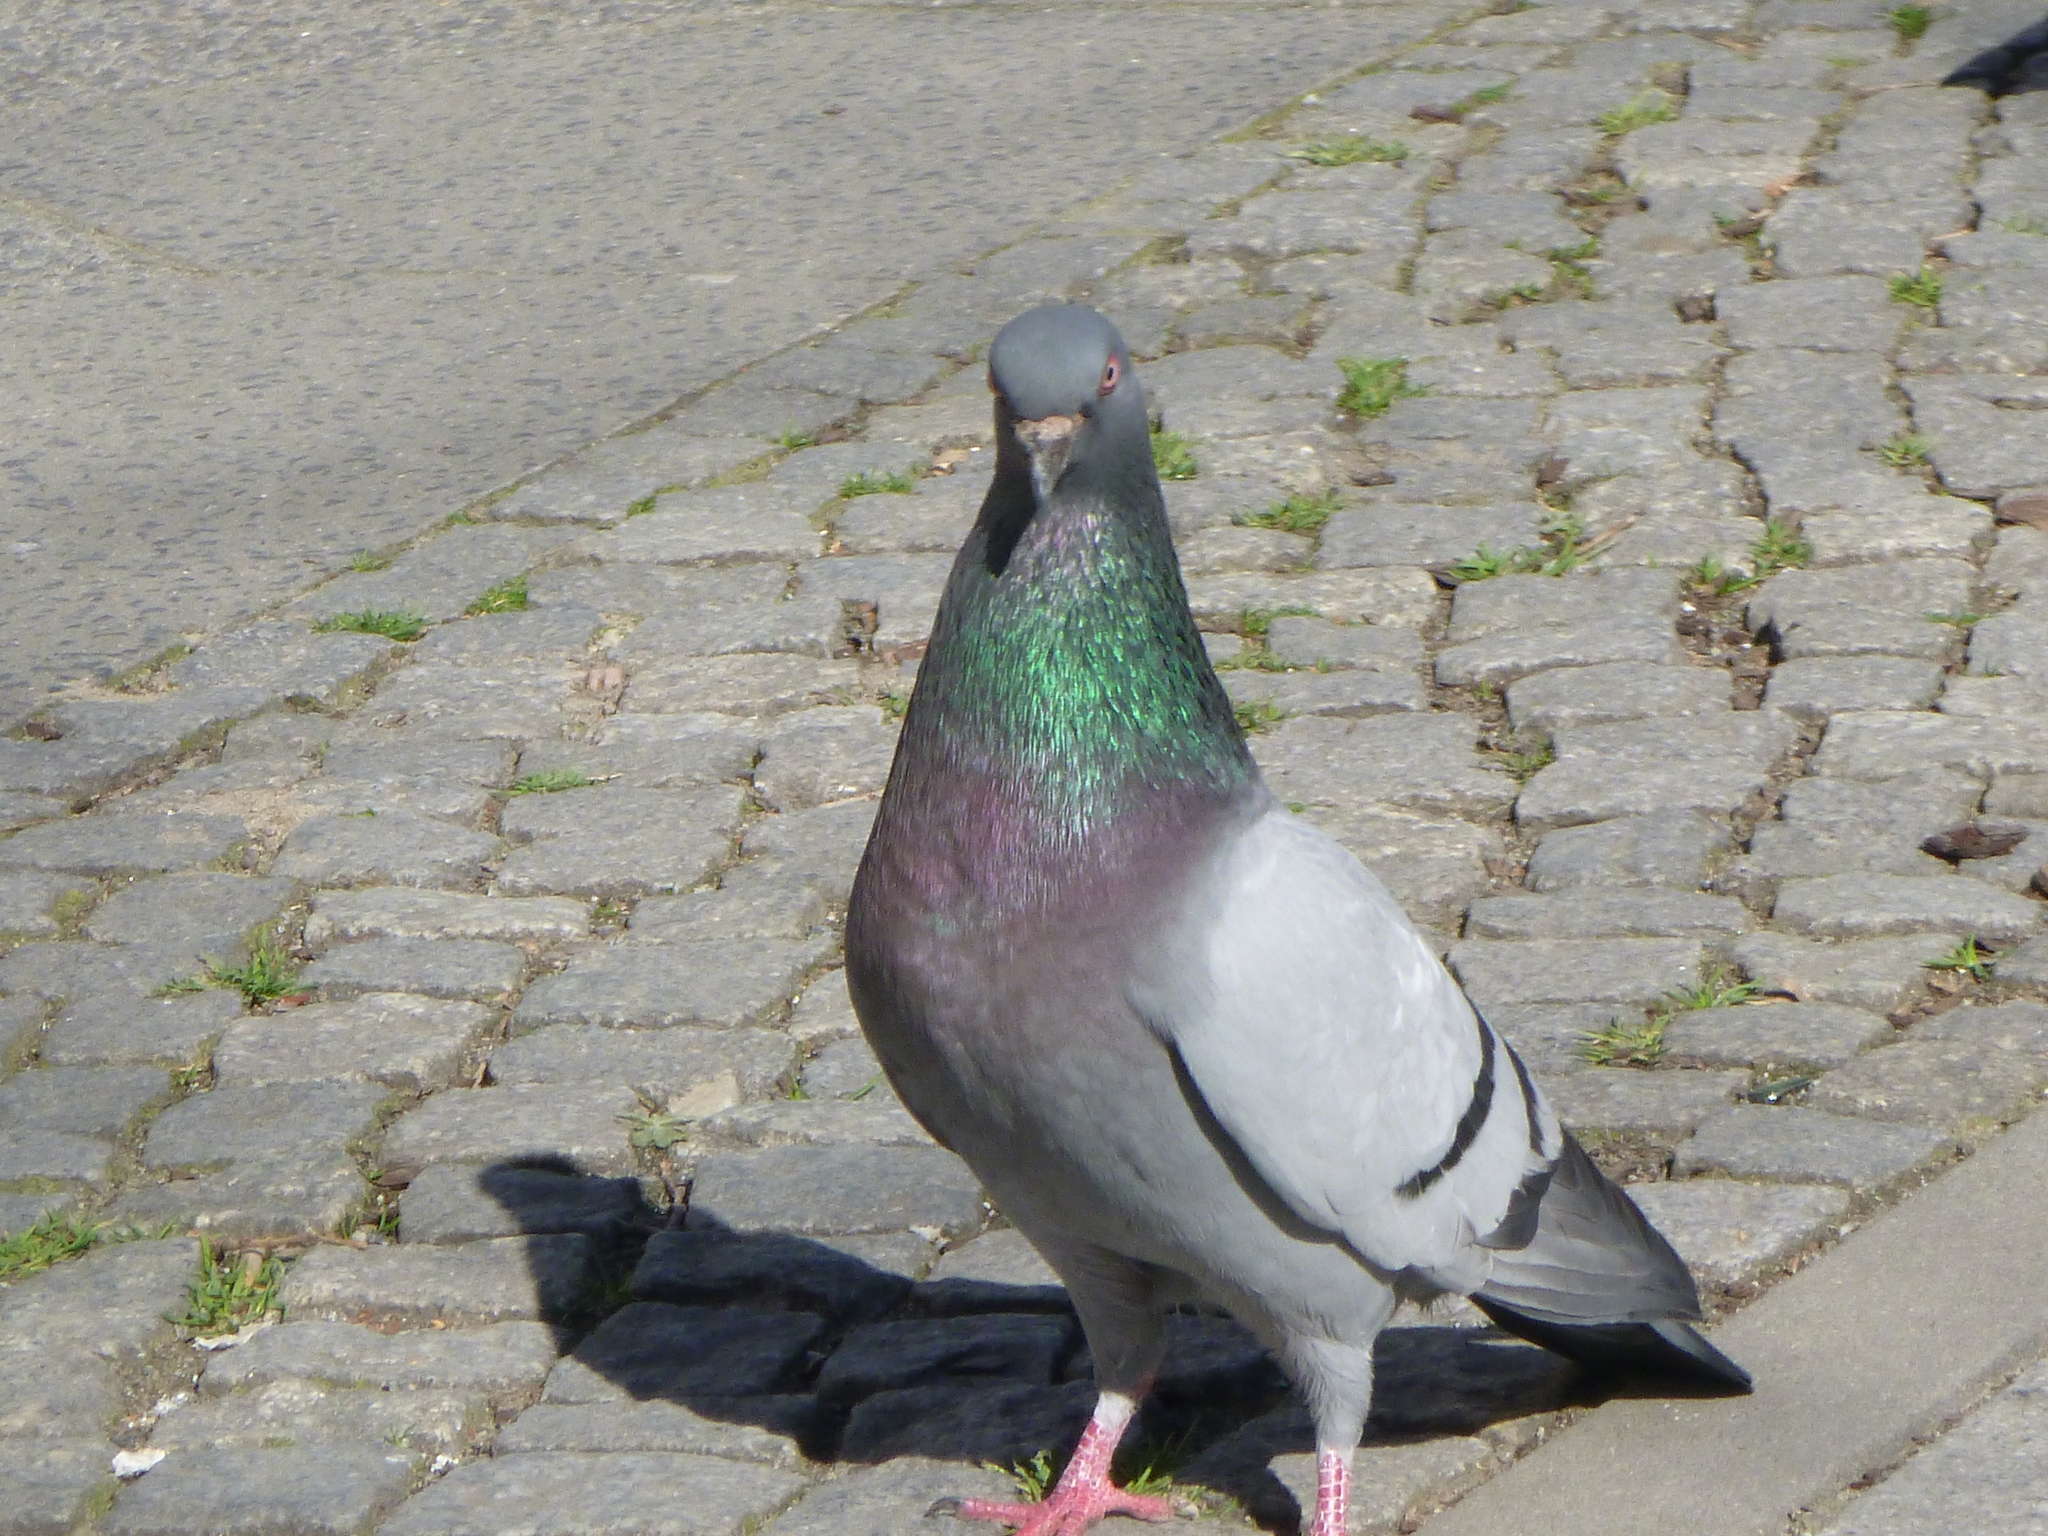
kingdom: Animalia
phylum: Chordata
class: Aves
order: Columbiformes
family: Columbidae
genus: Columba
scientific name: Columba livia
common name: Rock pigeon
